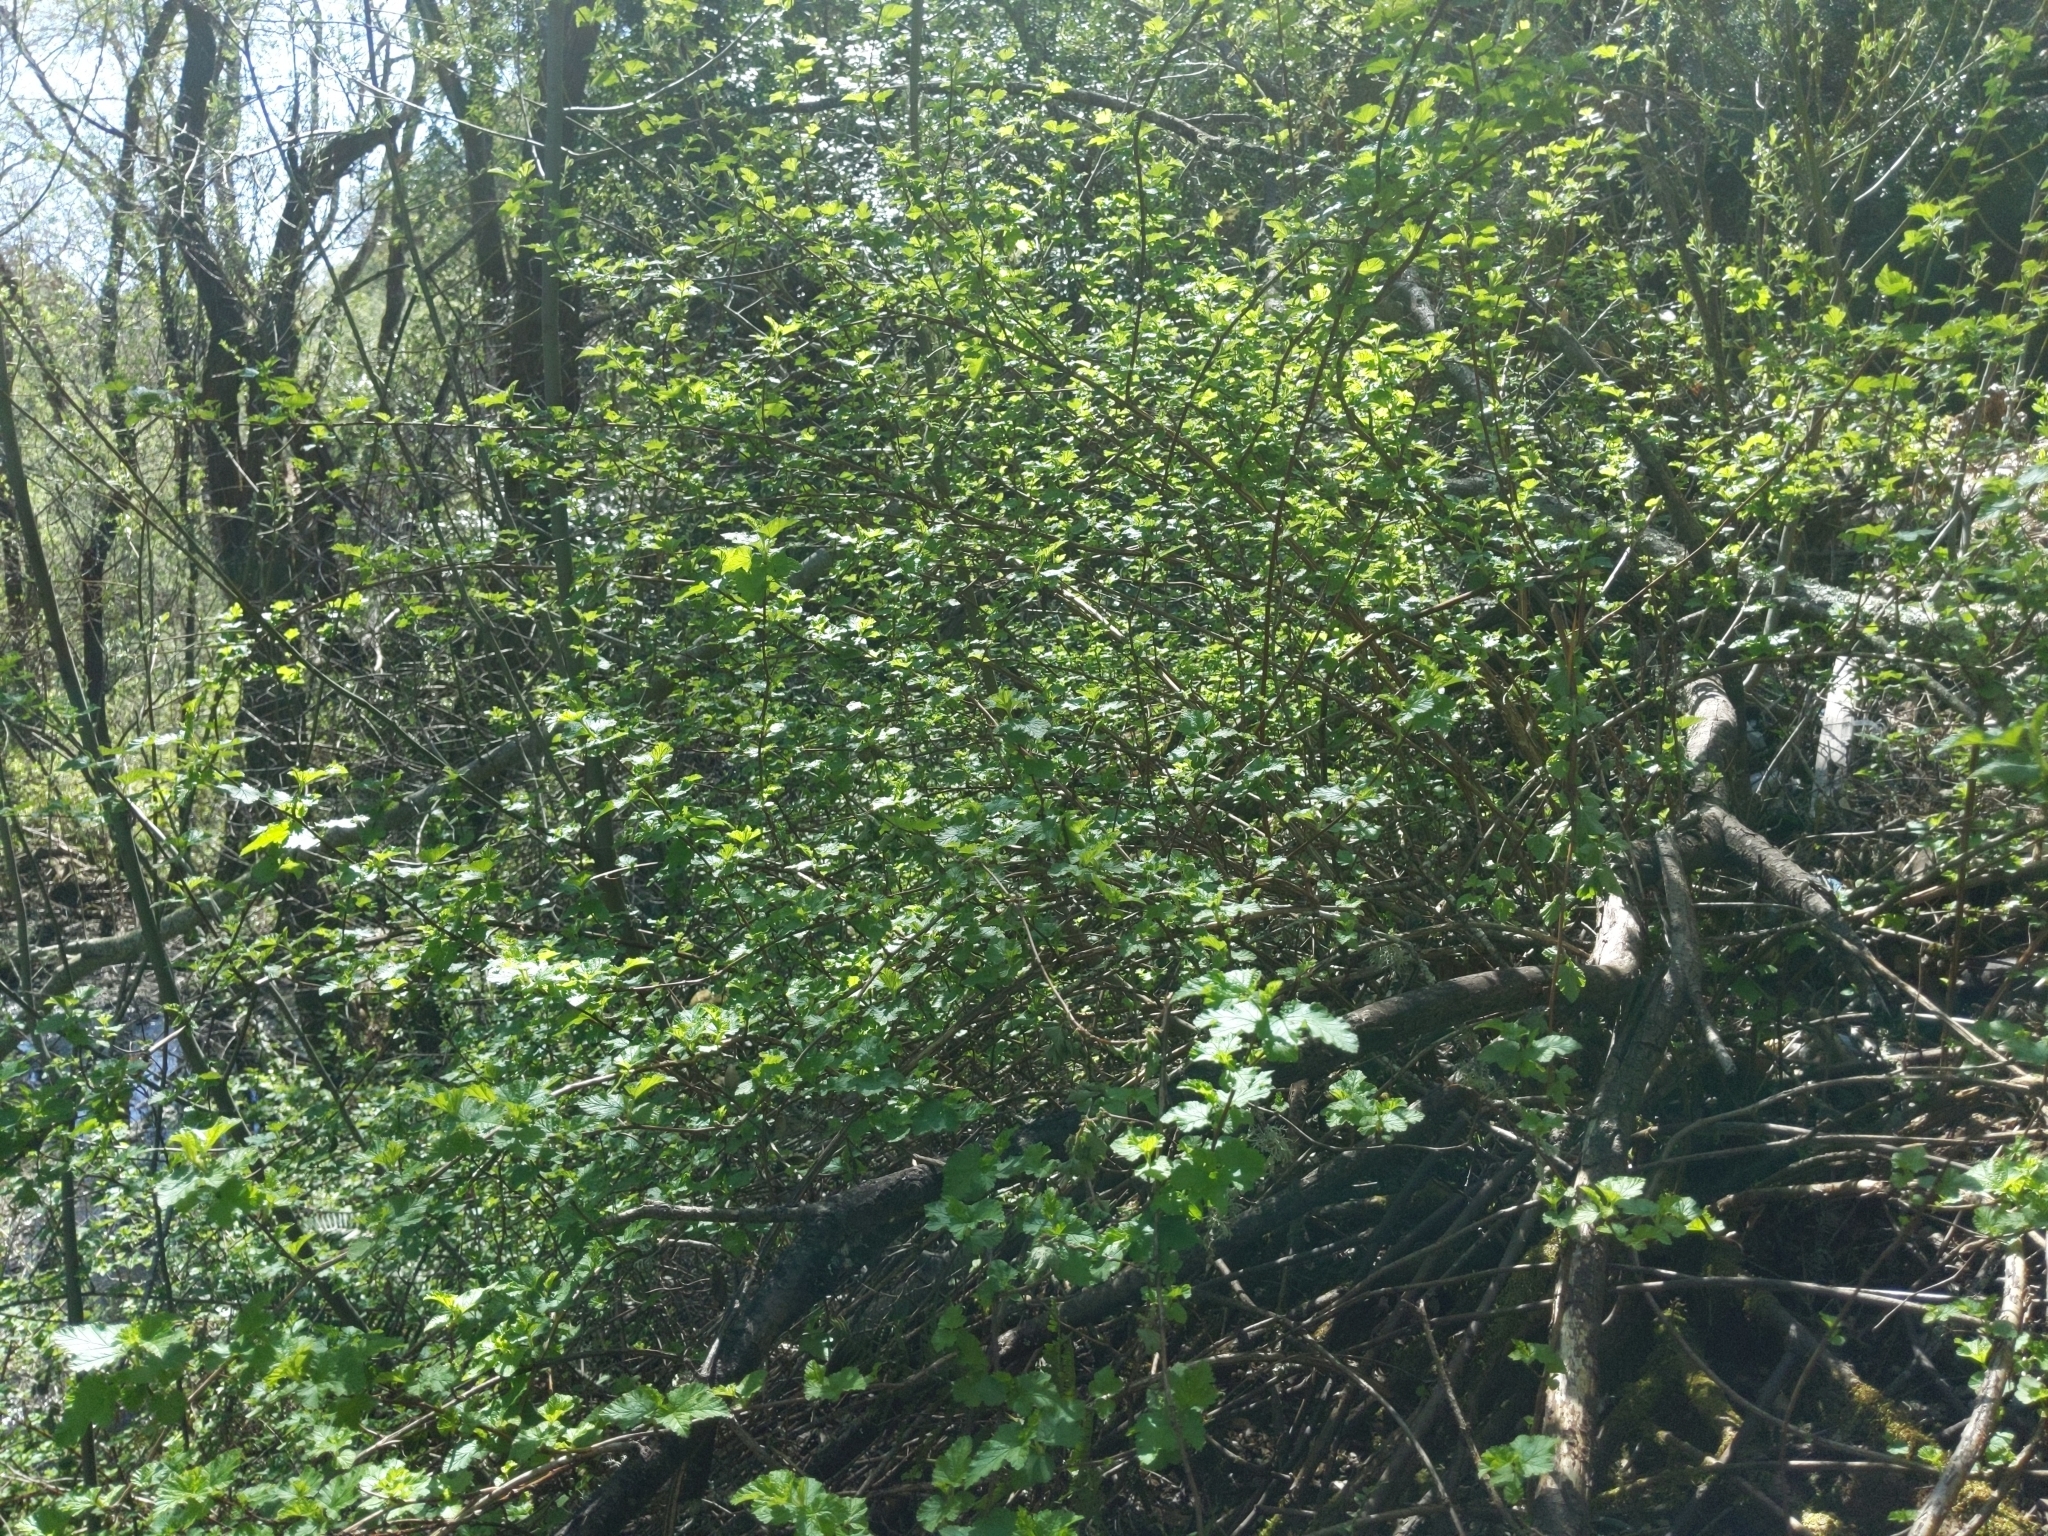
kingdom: Plantae
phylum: Tracheophyta
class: Magnoliopsida
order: Rosales
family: Rosaceae
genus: Physocarpus
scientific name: Physocarpus capitatus
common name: Pacific ninebark
